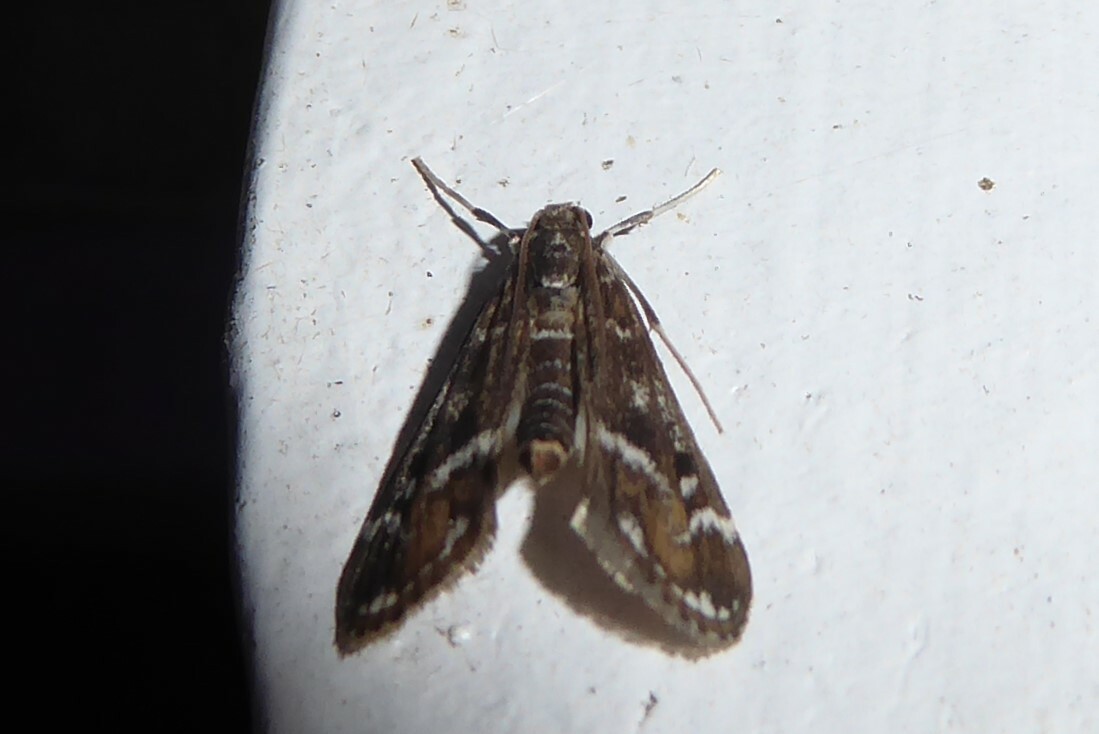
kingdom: Animalia
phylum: Arthropoda
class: Insecta
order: Lepidoptera
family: Crambidae
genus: Hygraula
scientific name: Hygraula nitens
